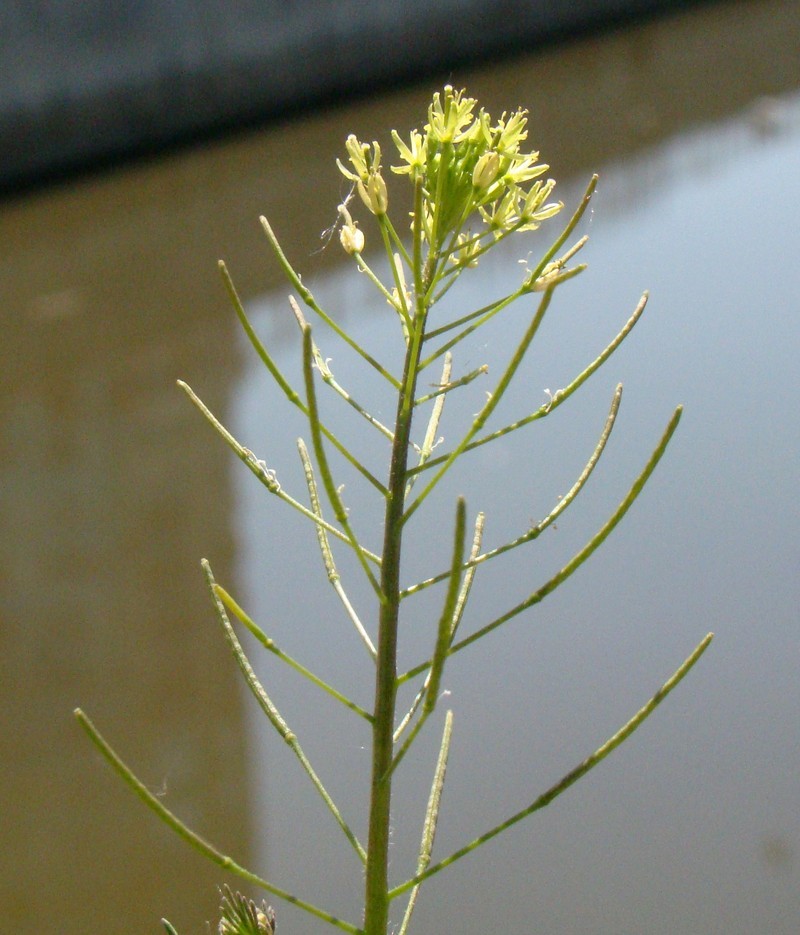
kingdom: Plantae
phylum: Tracheophyta
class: Magnoliopsida
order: Brassicales
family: Brassicaceae
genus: Descurainia
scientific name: Descurainia sophia
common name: Flixweed
